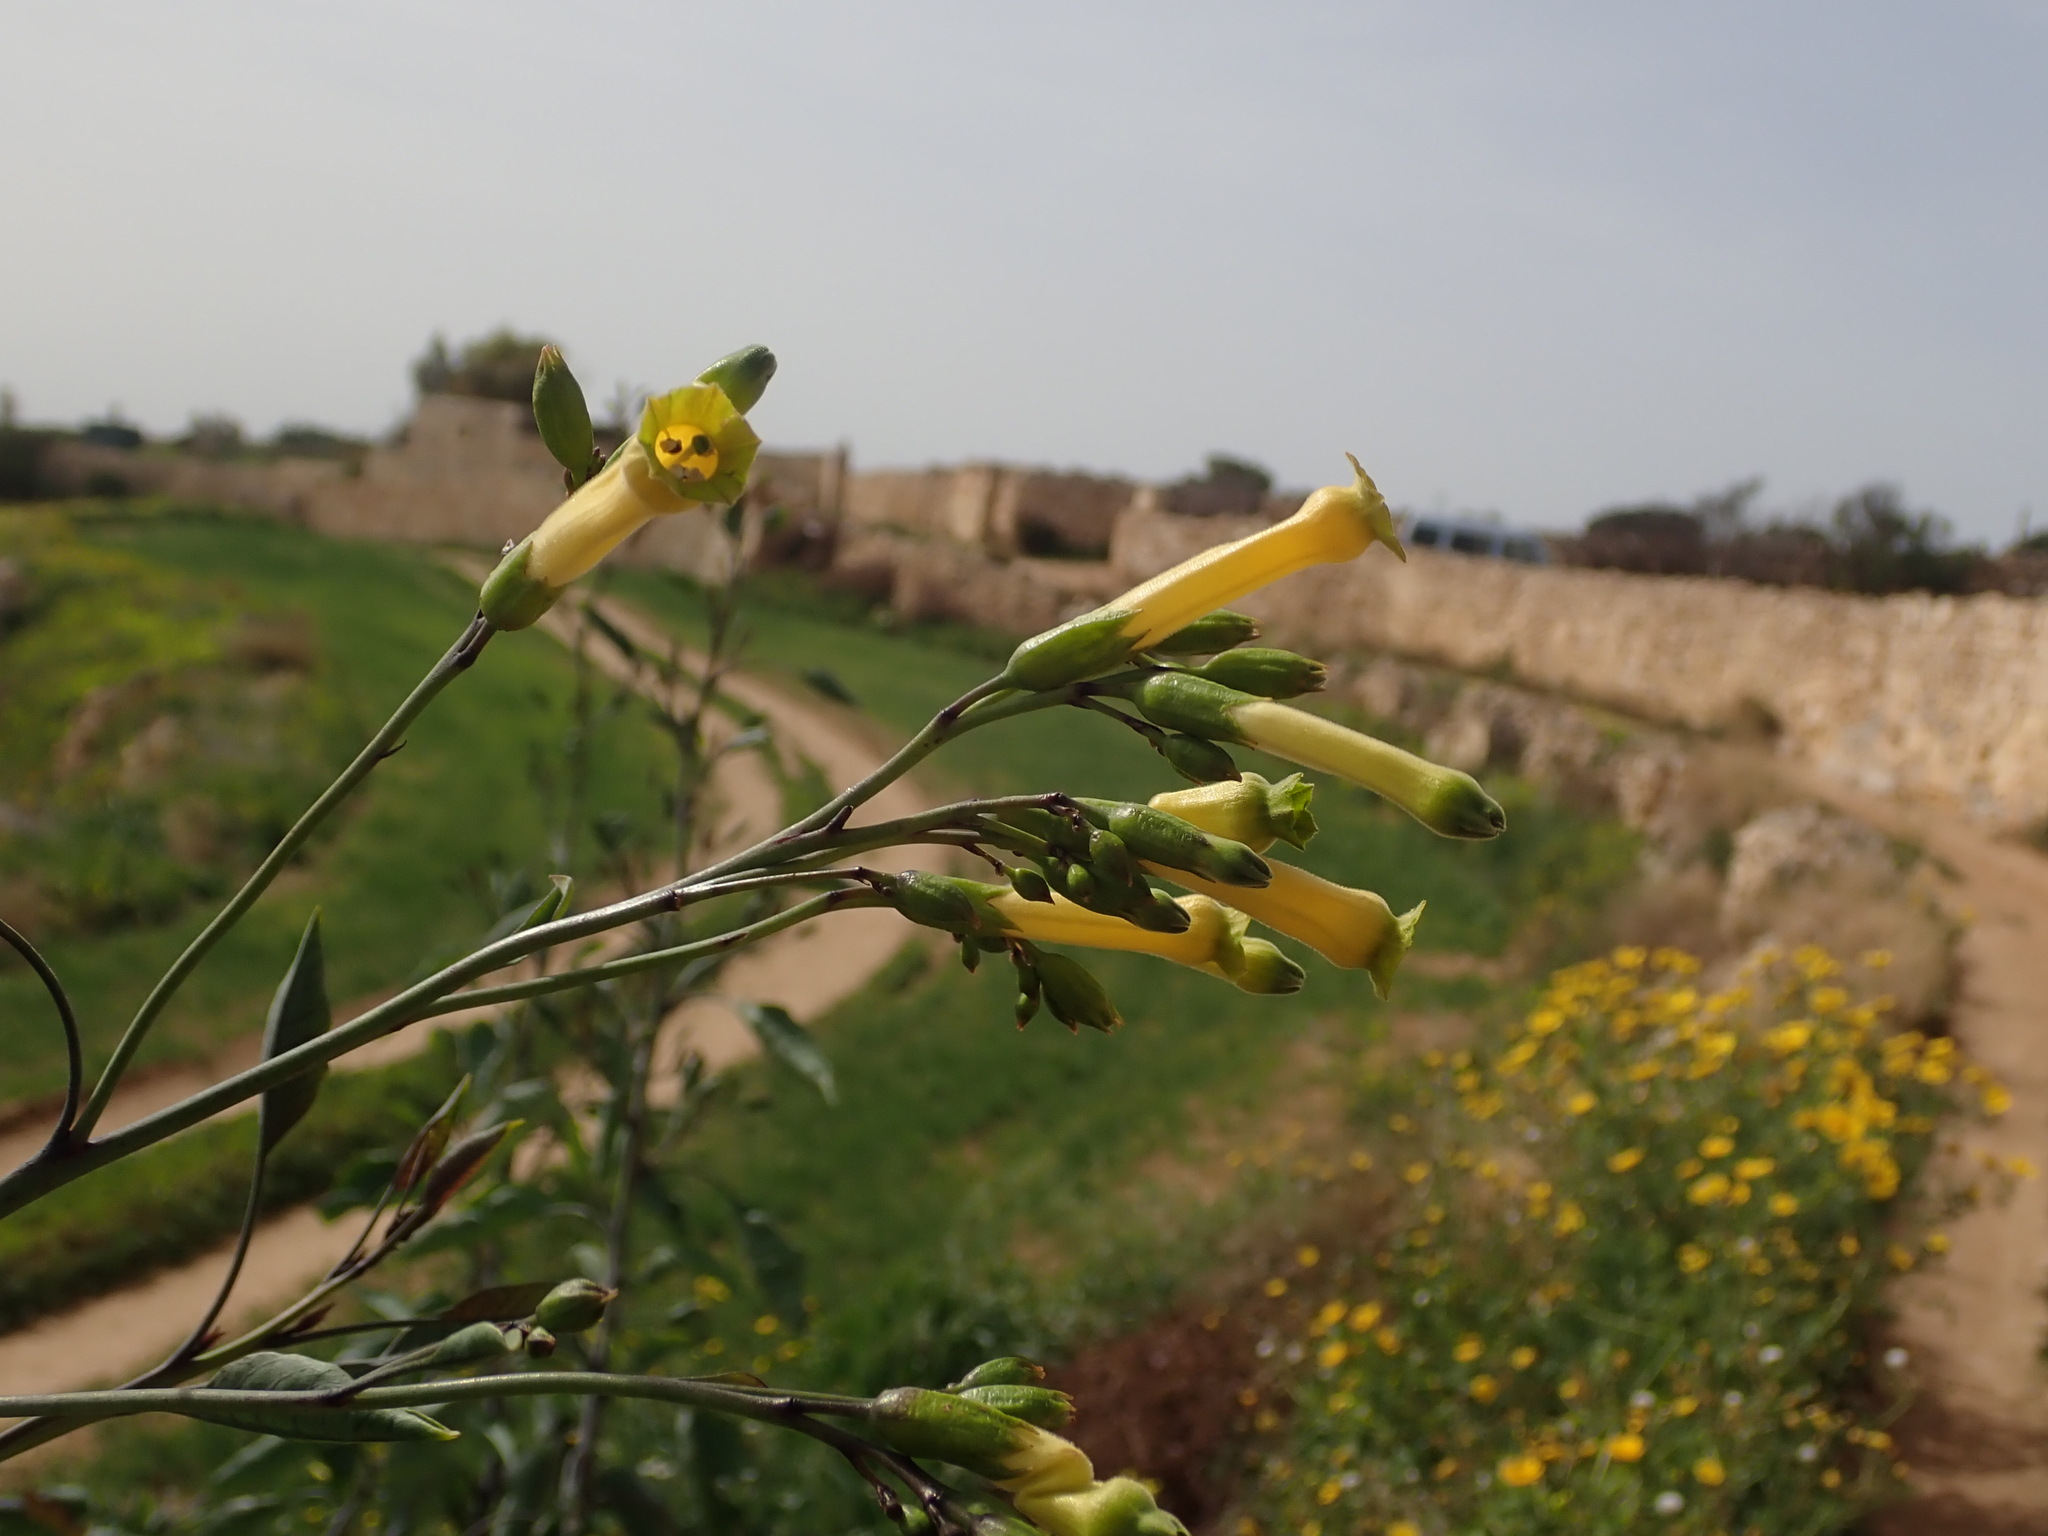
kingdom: Plantae
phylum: Tracheophyta
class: Magnoliopsida
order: Solanales
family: Solanaceae
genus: Nicotiana
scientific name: Nicotiana glauca
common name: Tree tobacco
